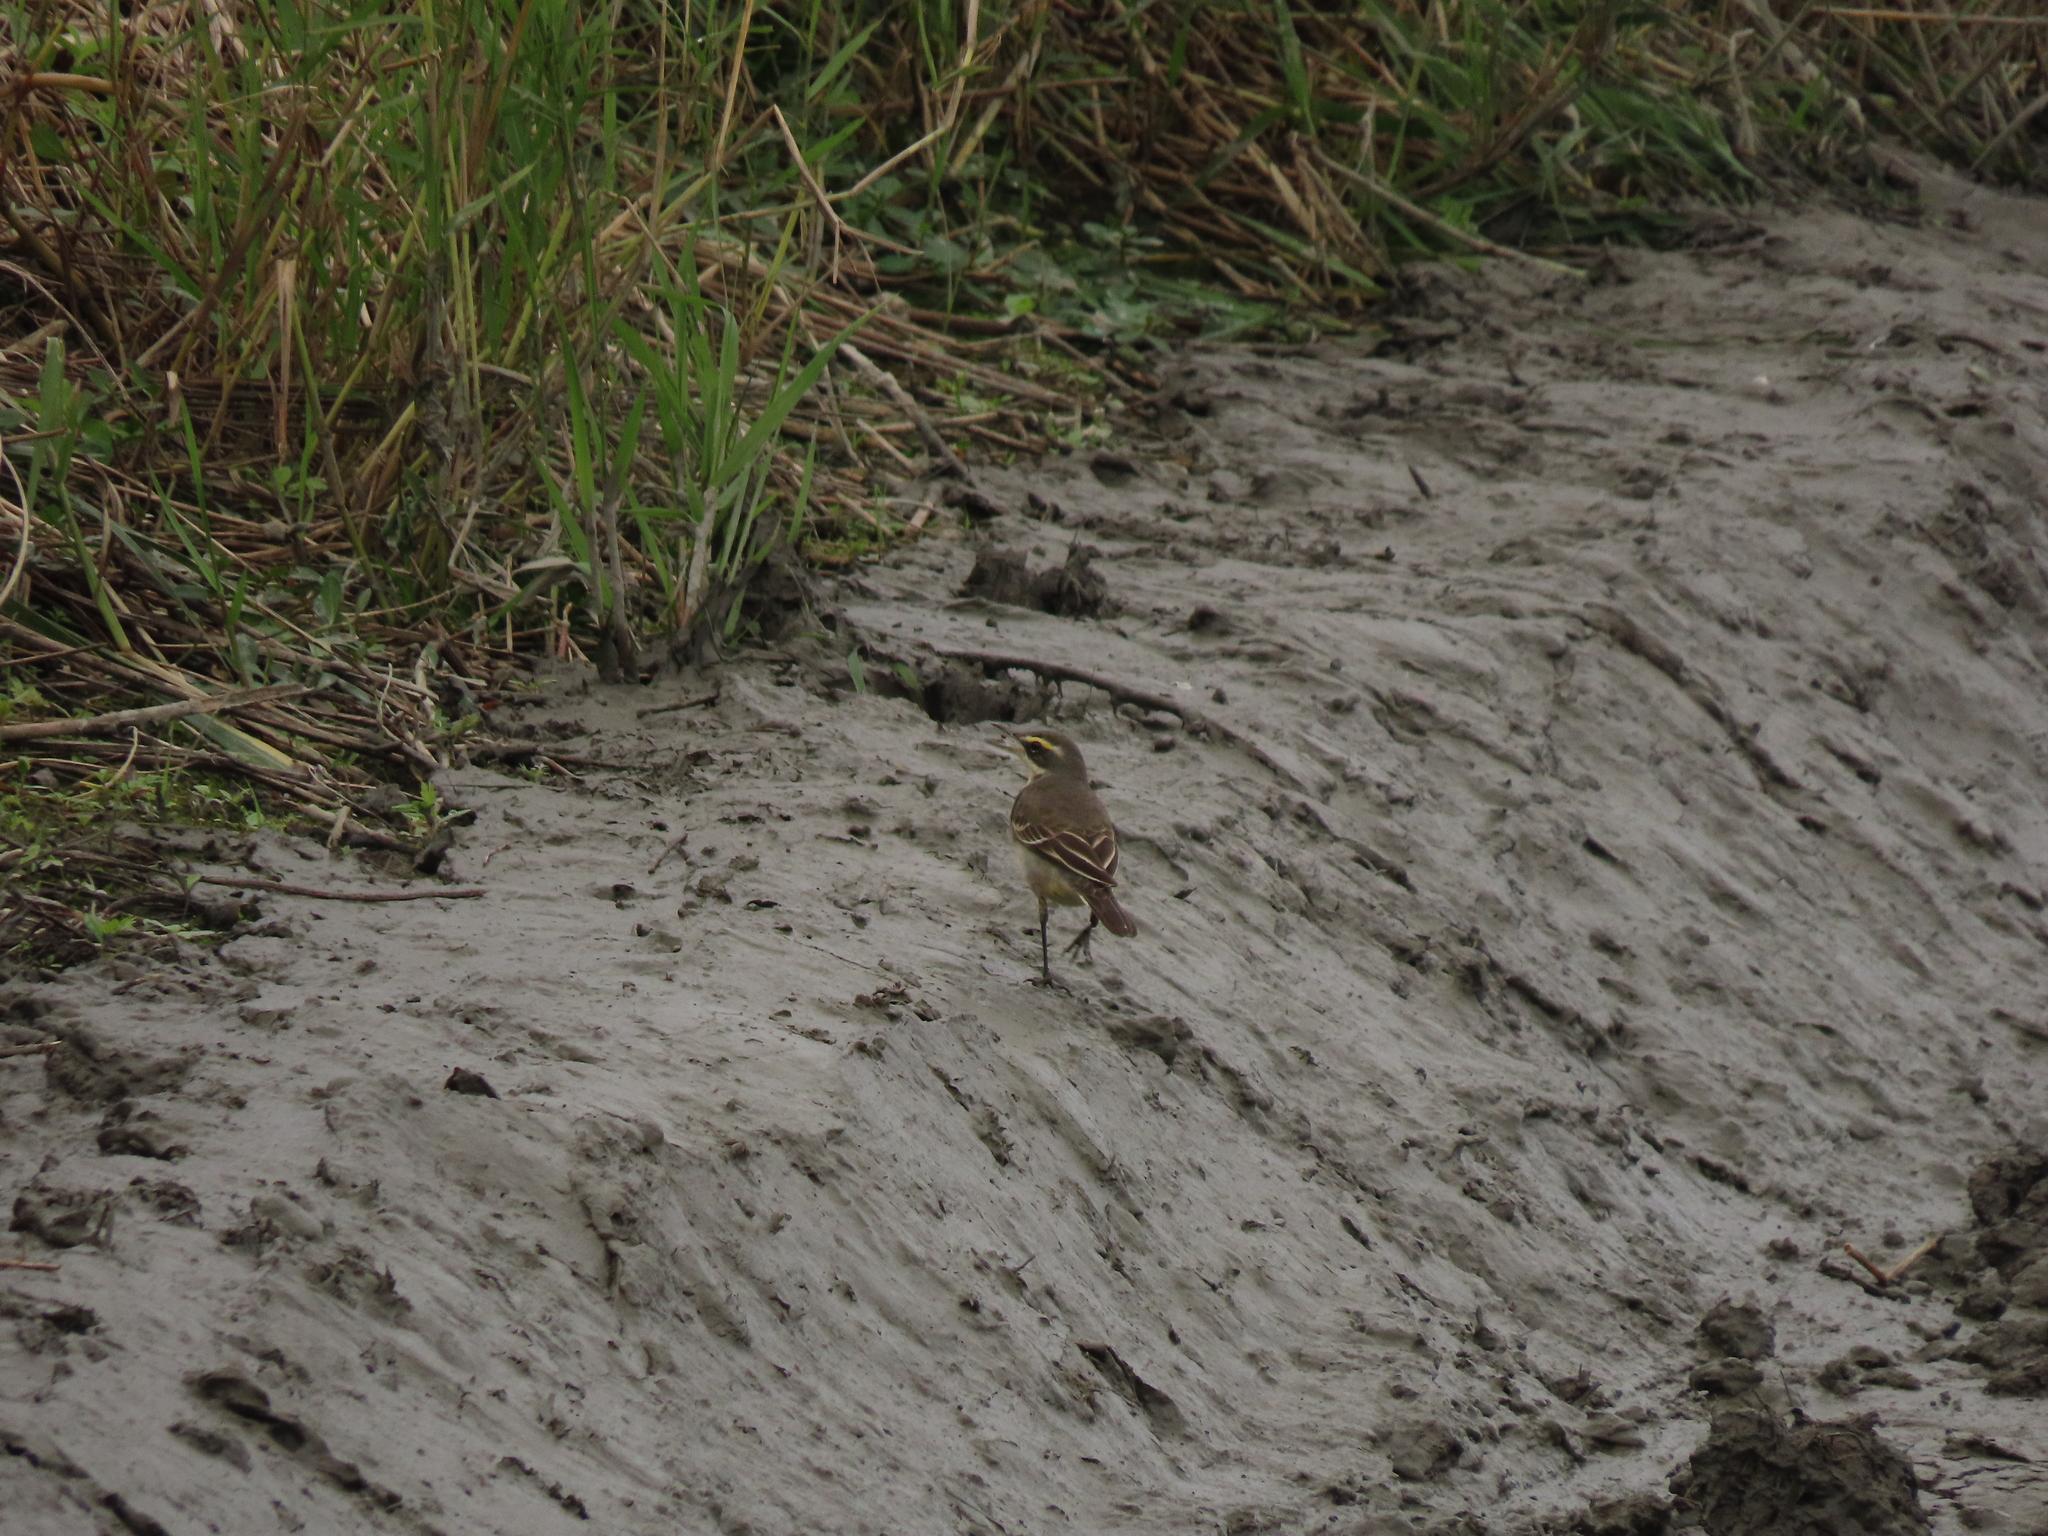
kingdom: Animalia
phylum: Chordata
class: Aves
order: Passeriformes
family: Motacillidae
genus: Motacilla
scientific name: Motacilla tschutschensis
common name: Eastern yellow wagtail
